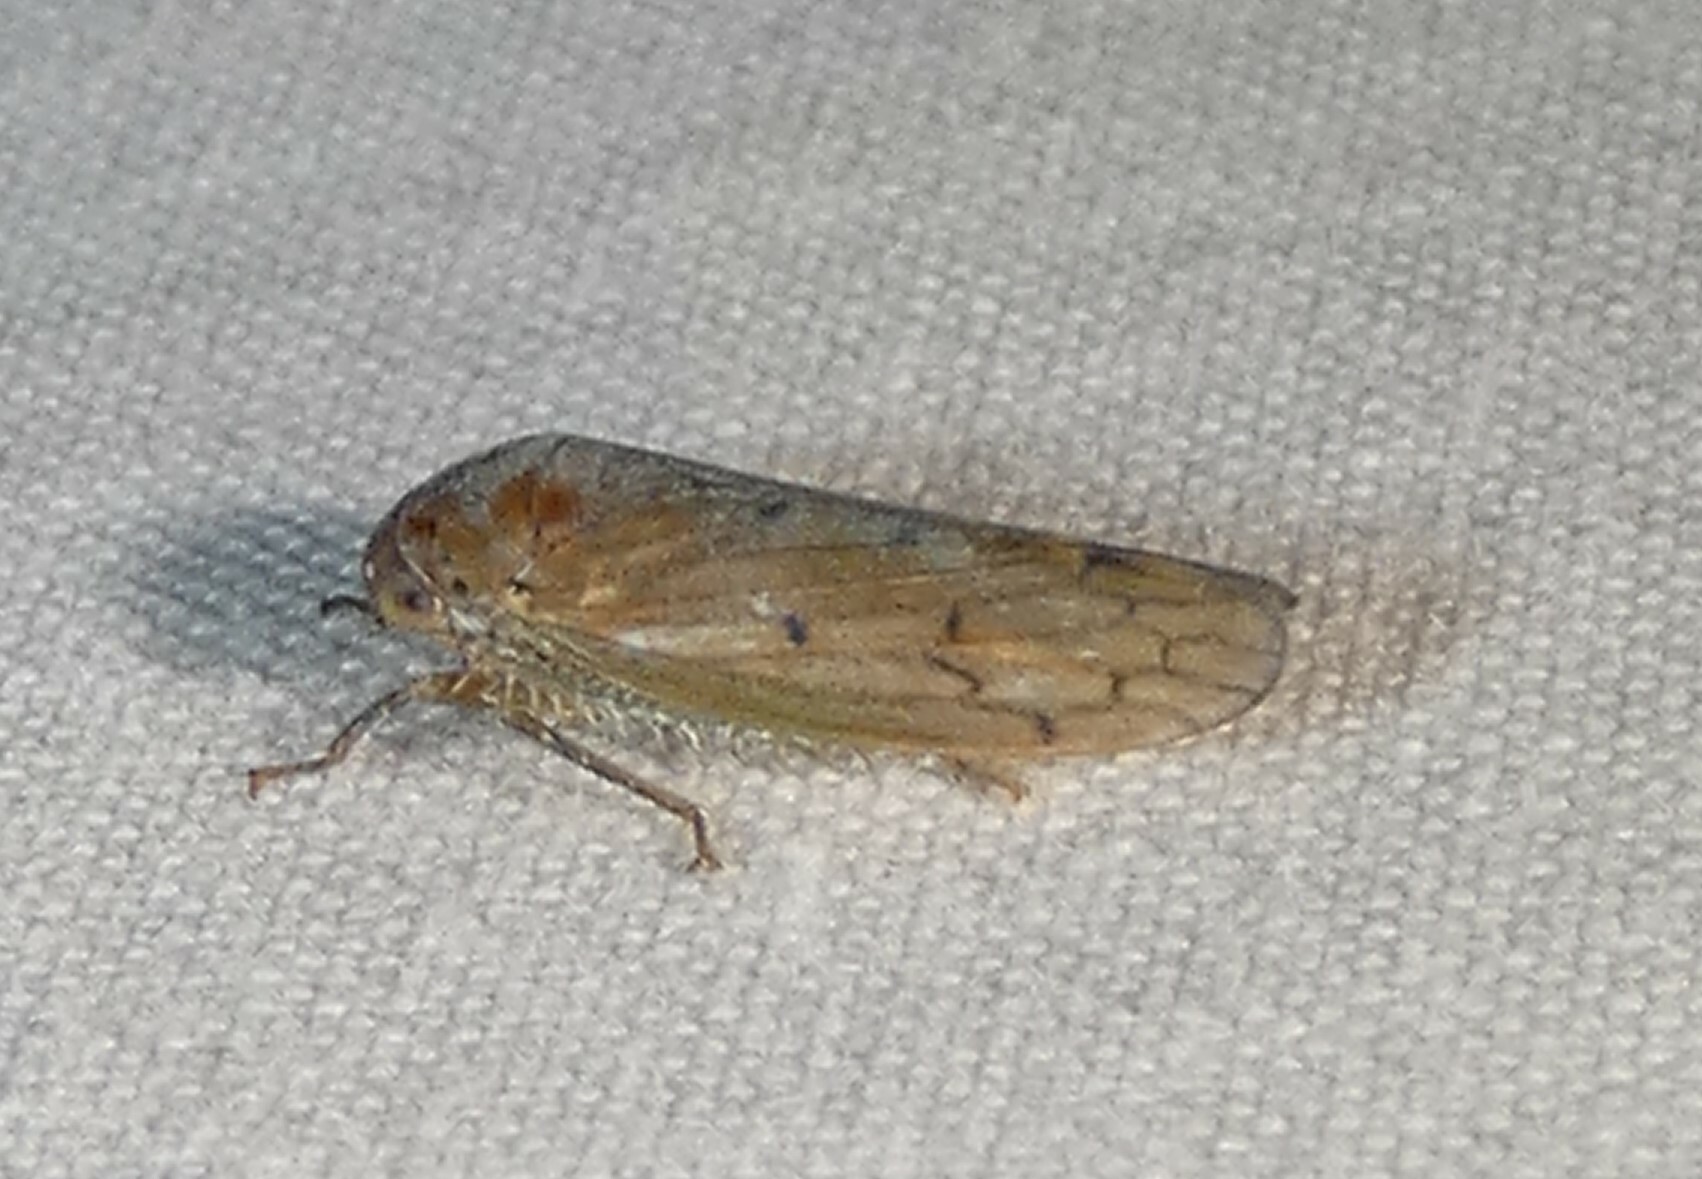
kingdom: Animalia
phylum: Arthropoda
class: Insecta
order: Hemiptera
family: Cicadellidae
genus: Polana
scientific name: Polana quadrinotata
